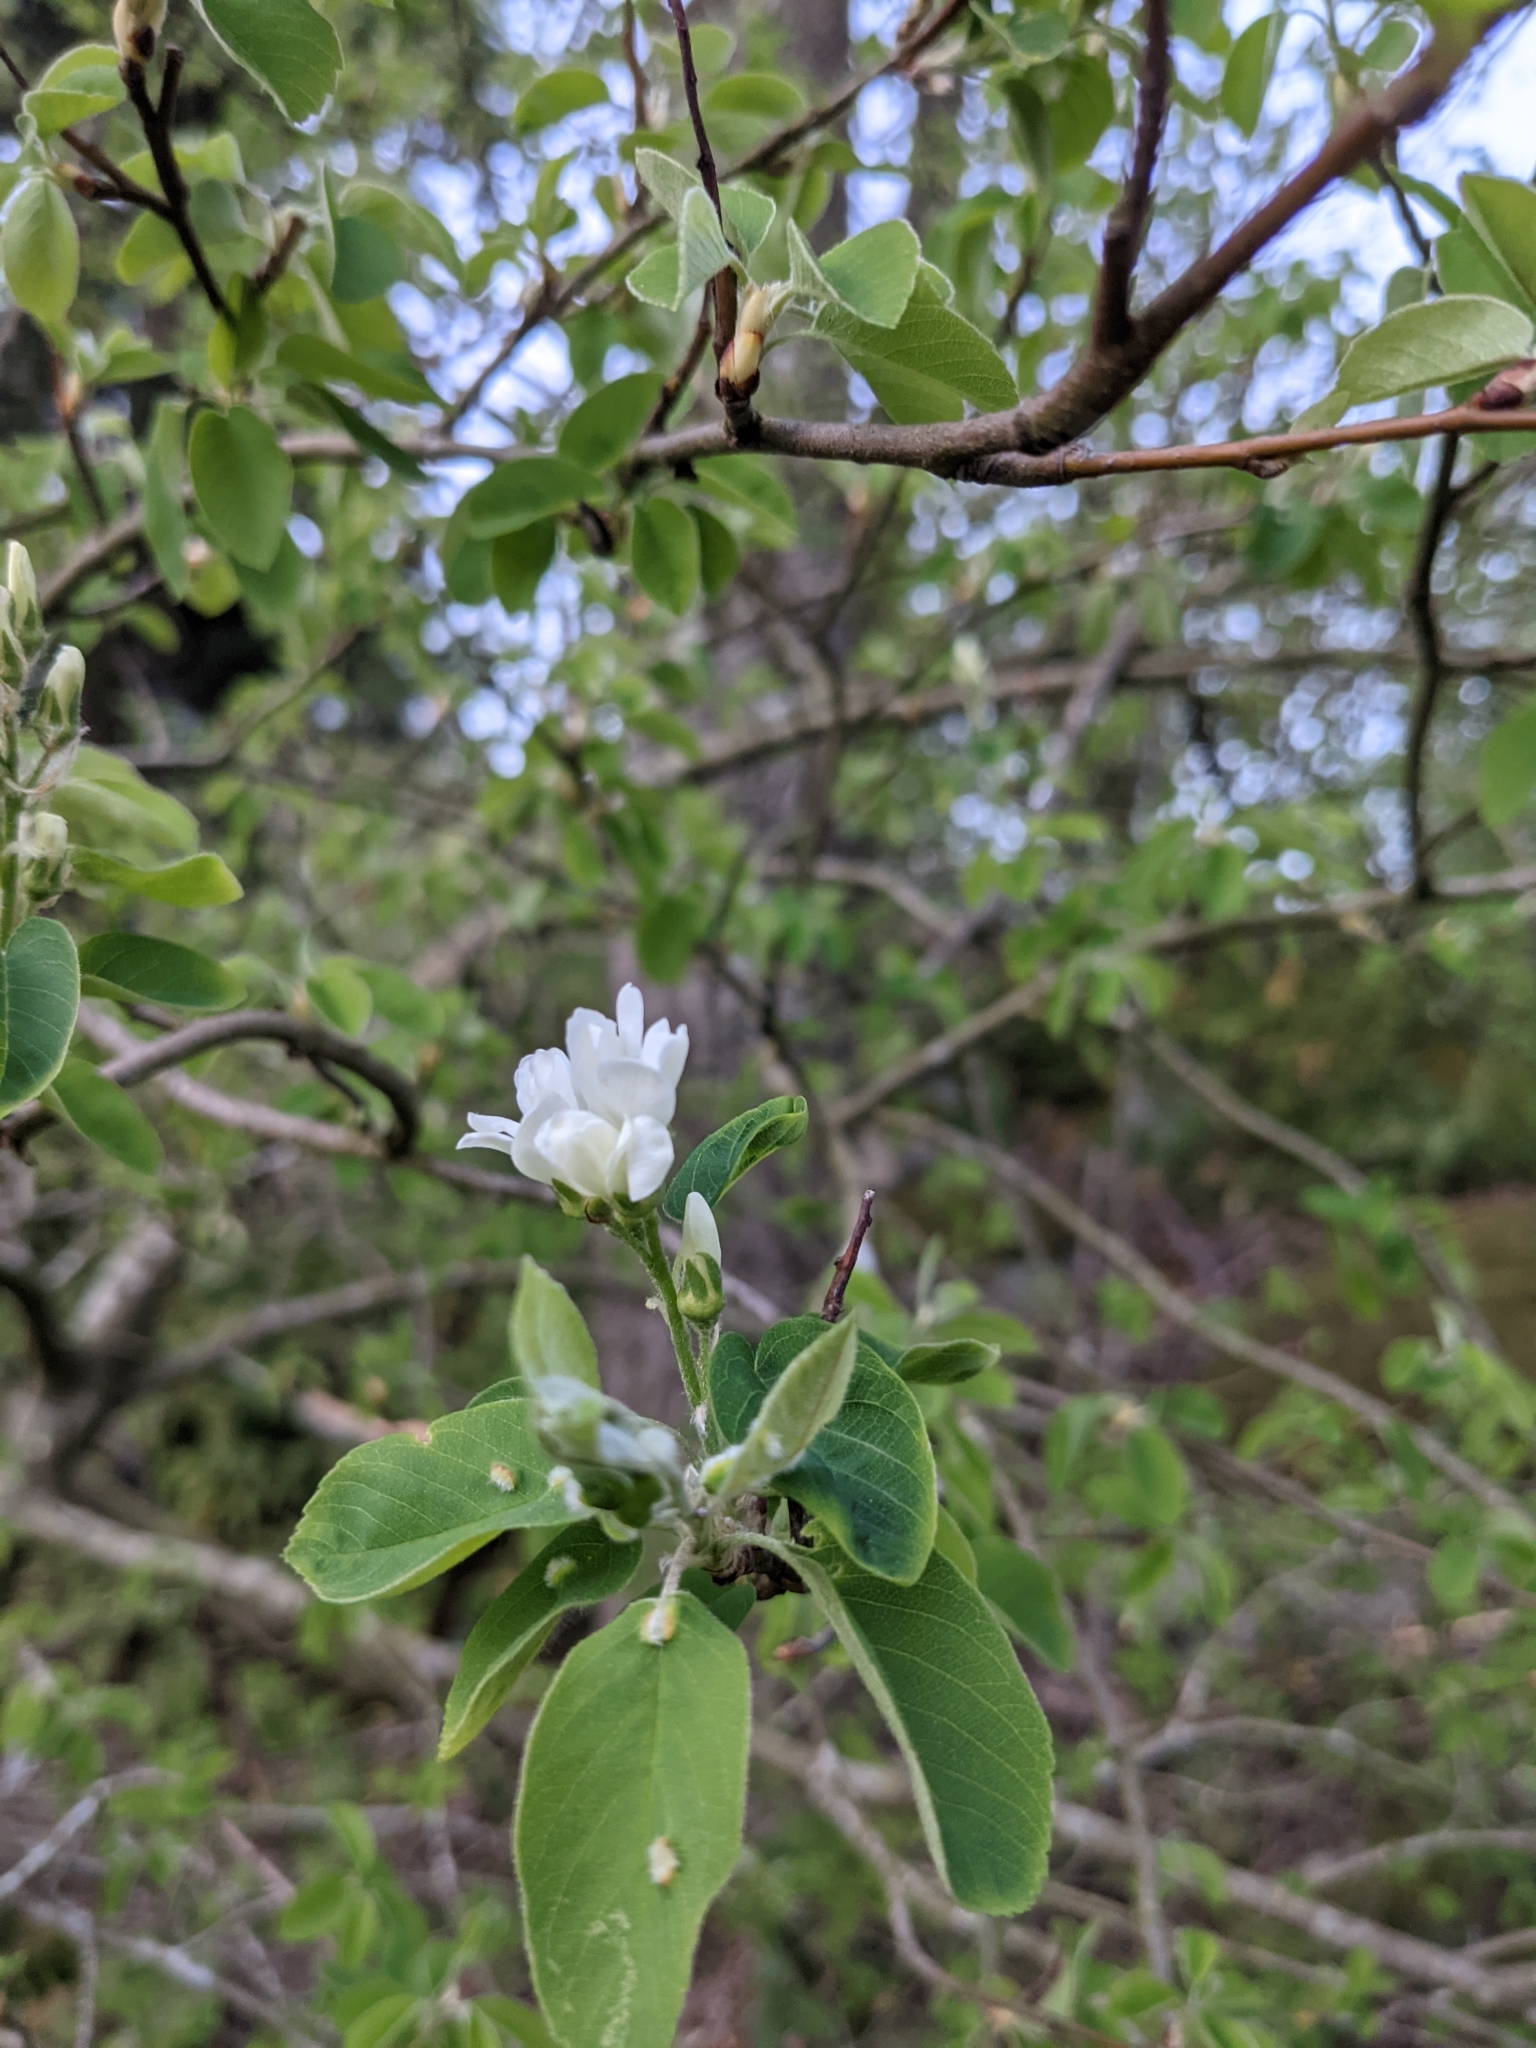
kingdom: Plantae
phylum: Tracheophyta
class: Magnoliopsida
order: Rosales
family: Rosaceae
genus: Amelanchier
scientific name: Amelanchier alnifolia
